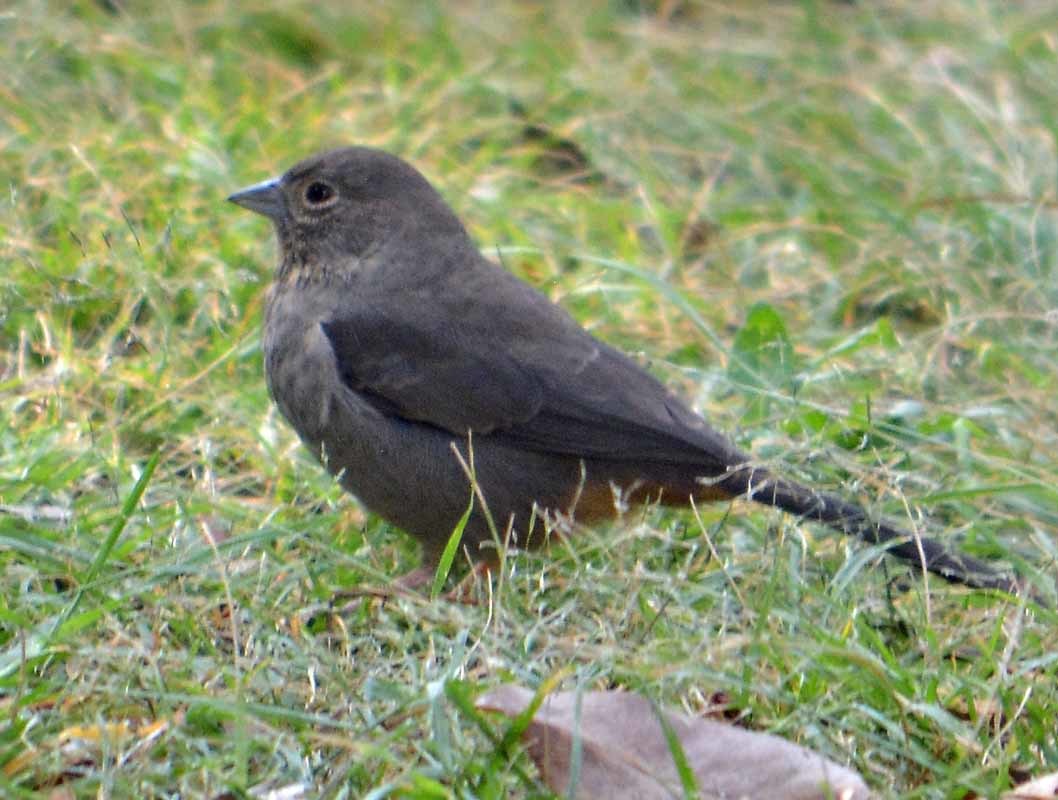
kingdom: Animalia
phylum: Chordata
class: Aves
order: Passeriformes
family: Passerellidae
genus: Melozone
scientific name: Melozone fusca
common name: Canyon towhee
